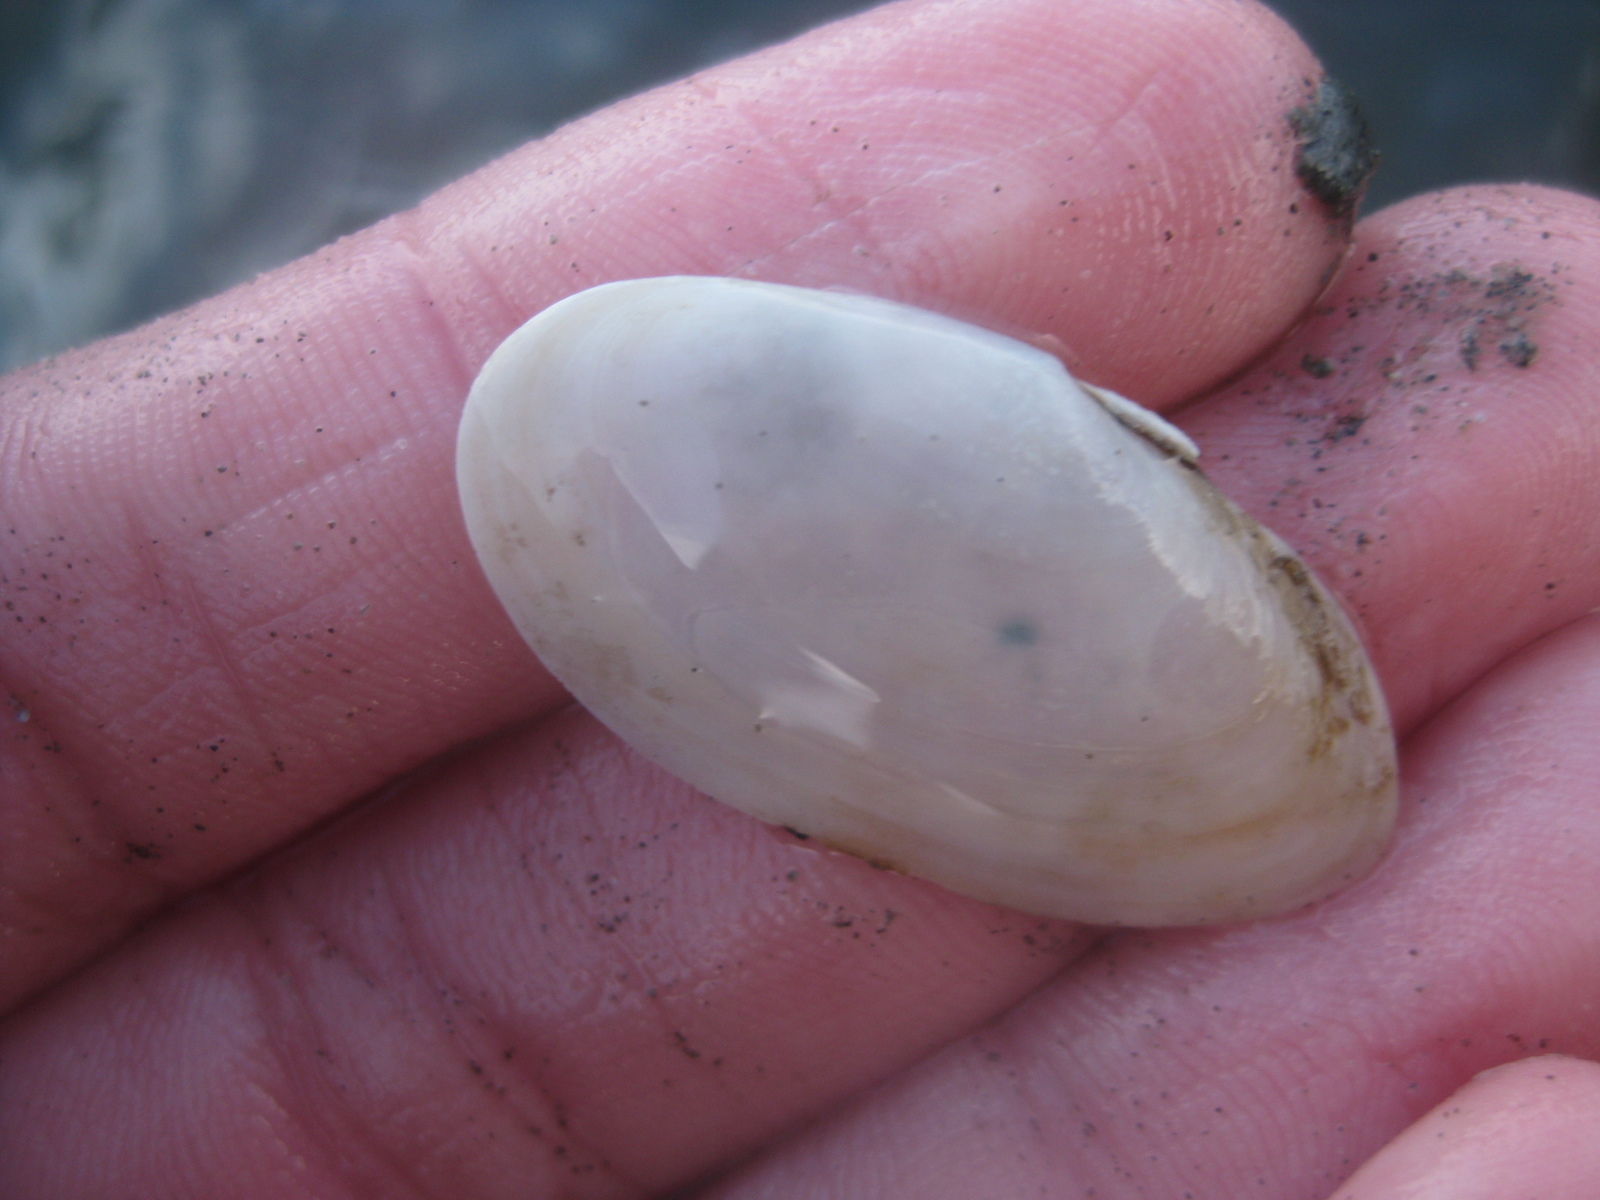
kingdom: Animalia
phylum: Mollusca
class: Bivalvia
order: Cardiida
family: Psammobiidae
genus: Hiatula
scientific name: Hiatula siliquens
